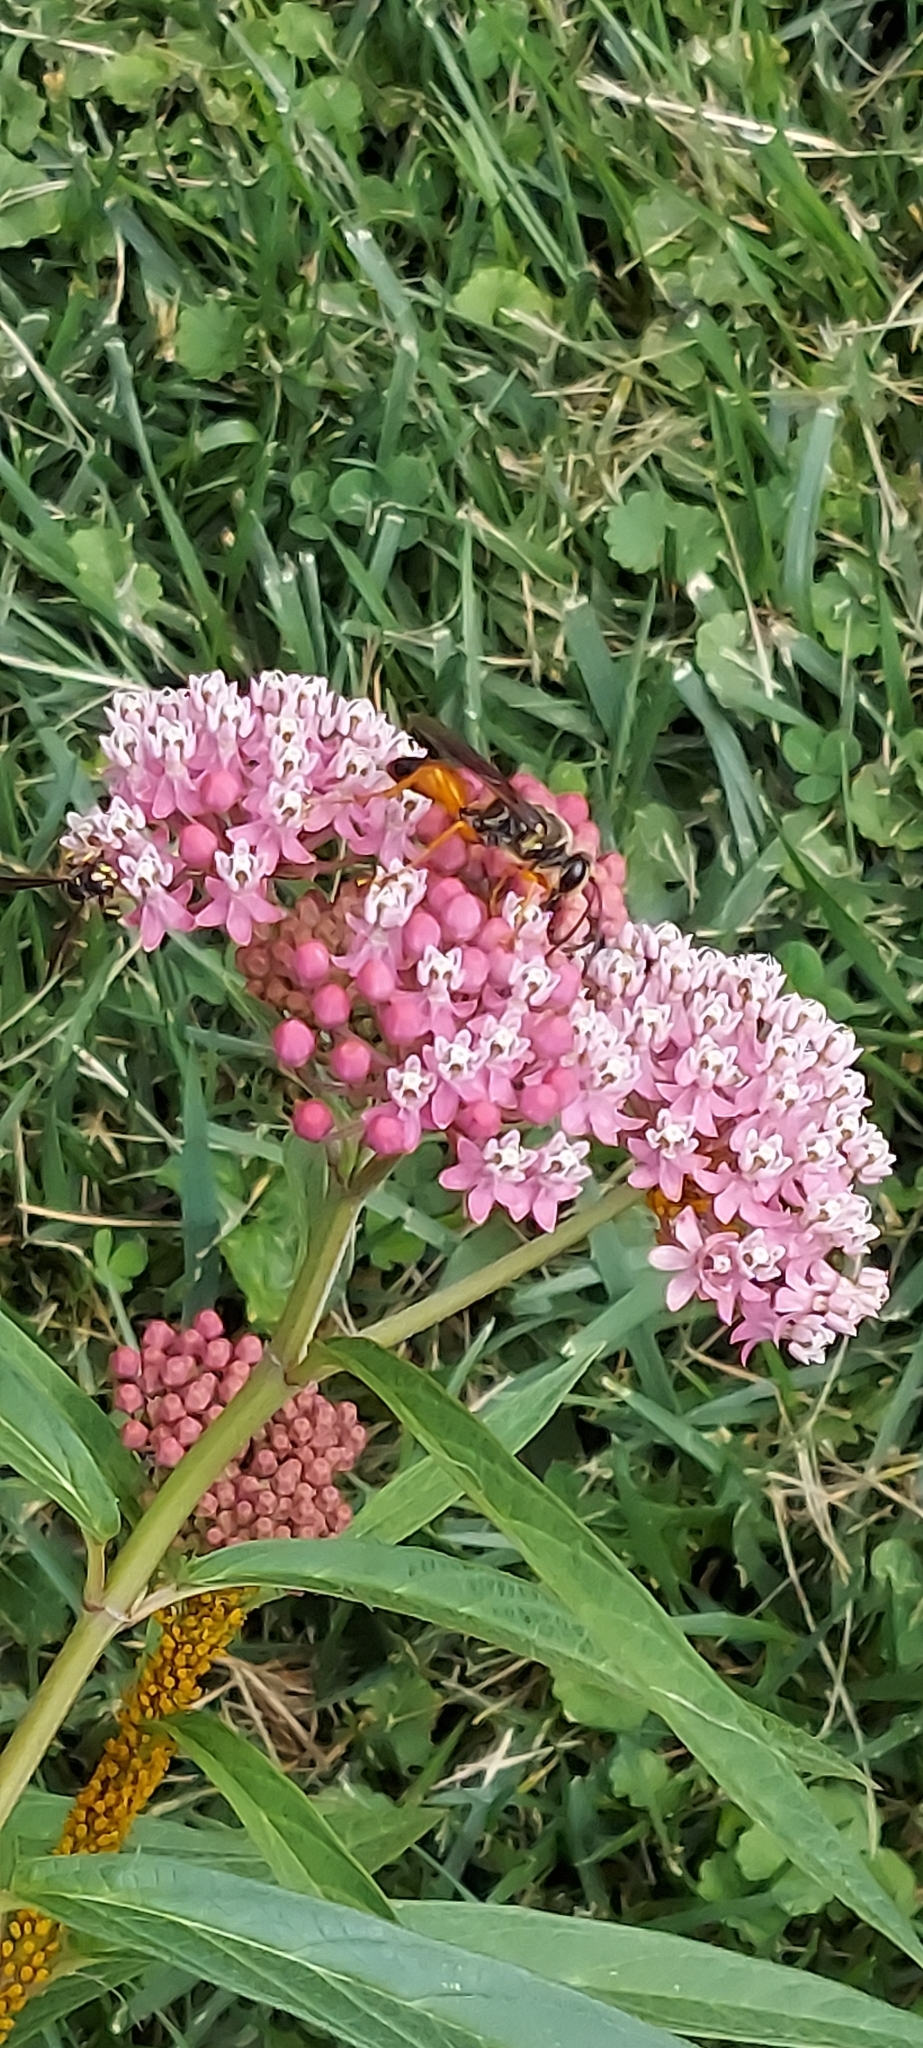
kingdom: Animalia
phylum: Arthropoda
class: Insecta
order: Hymenoptera
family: Sphecidae
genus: Sphex
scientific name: Sphex ichneumoneus
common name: Great golden digger wasp
